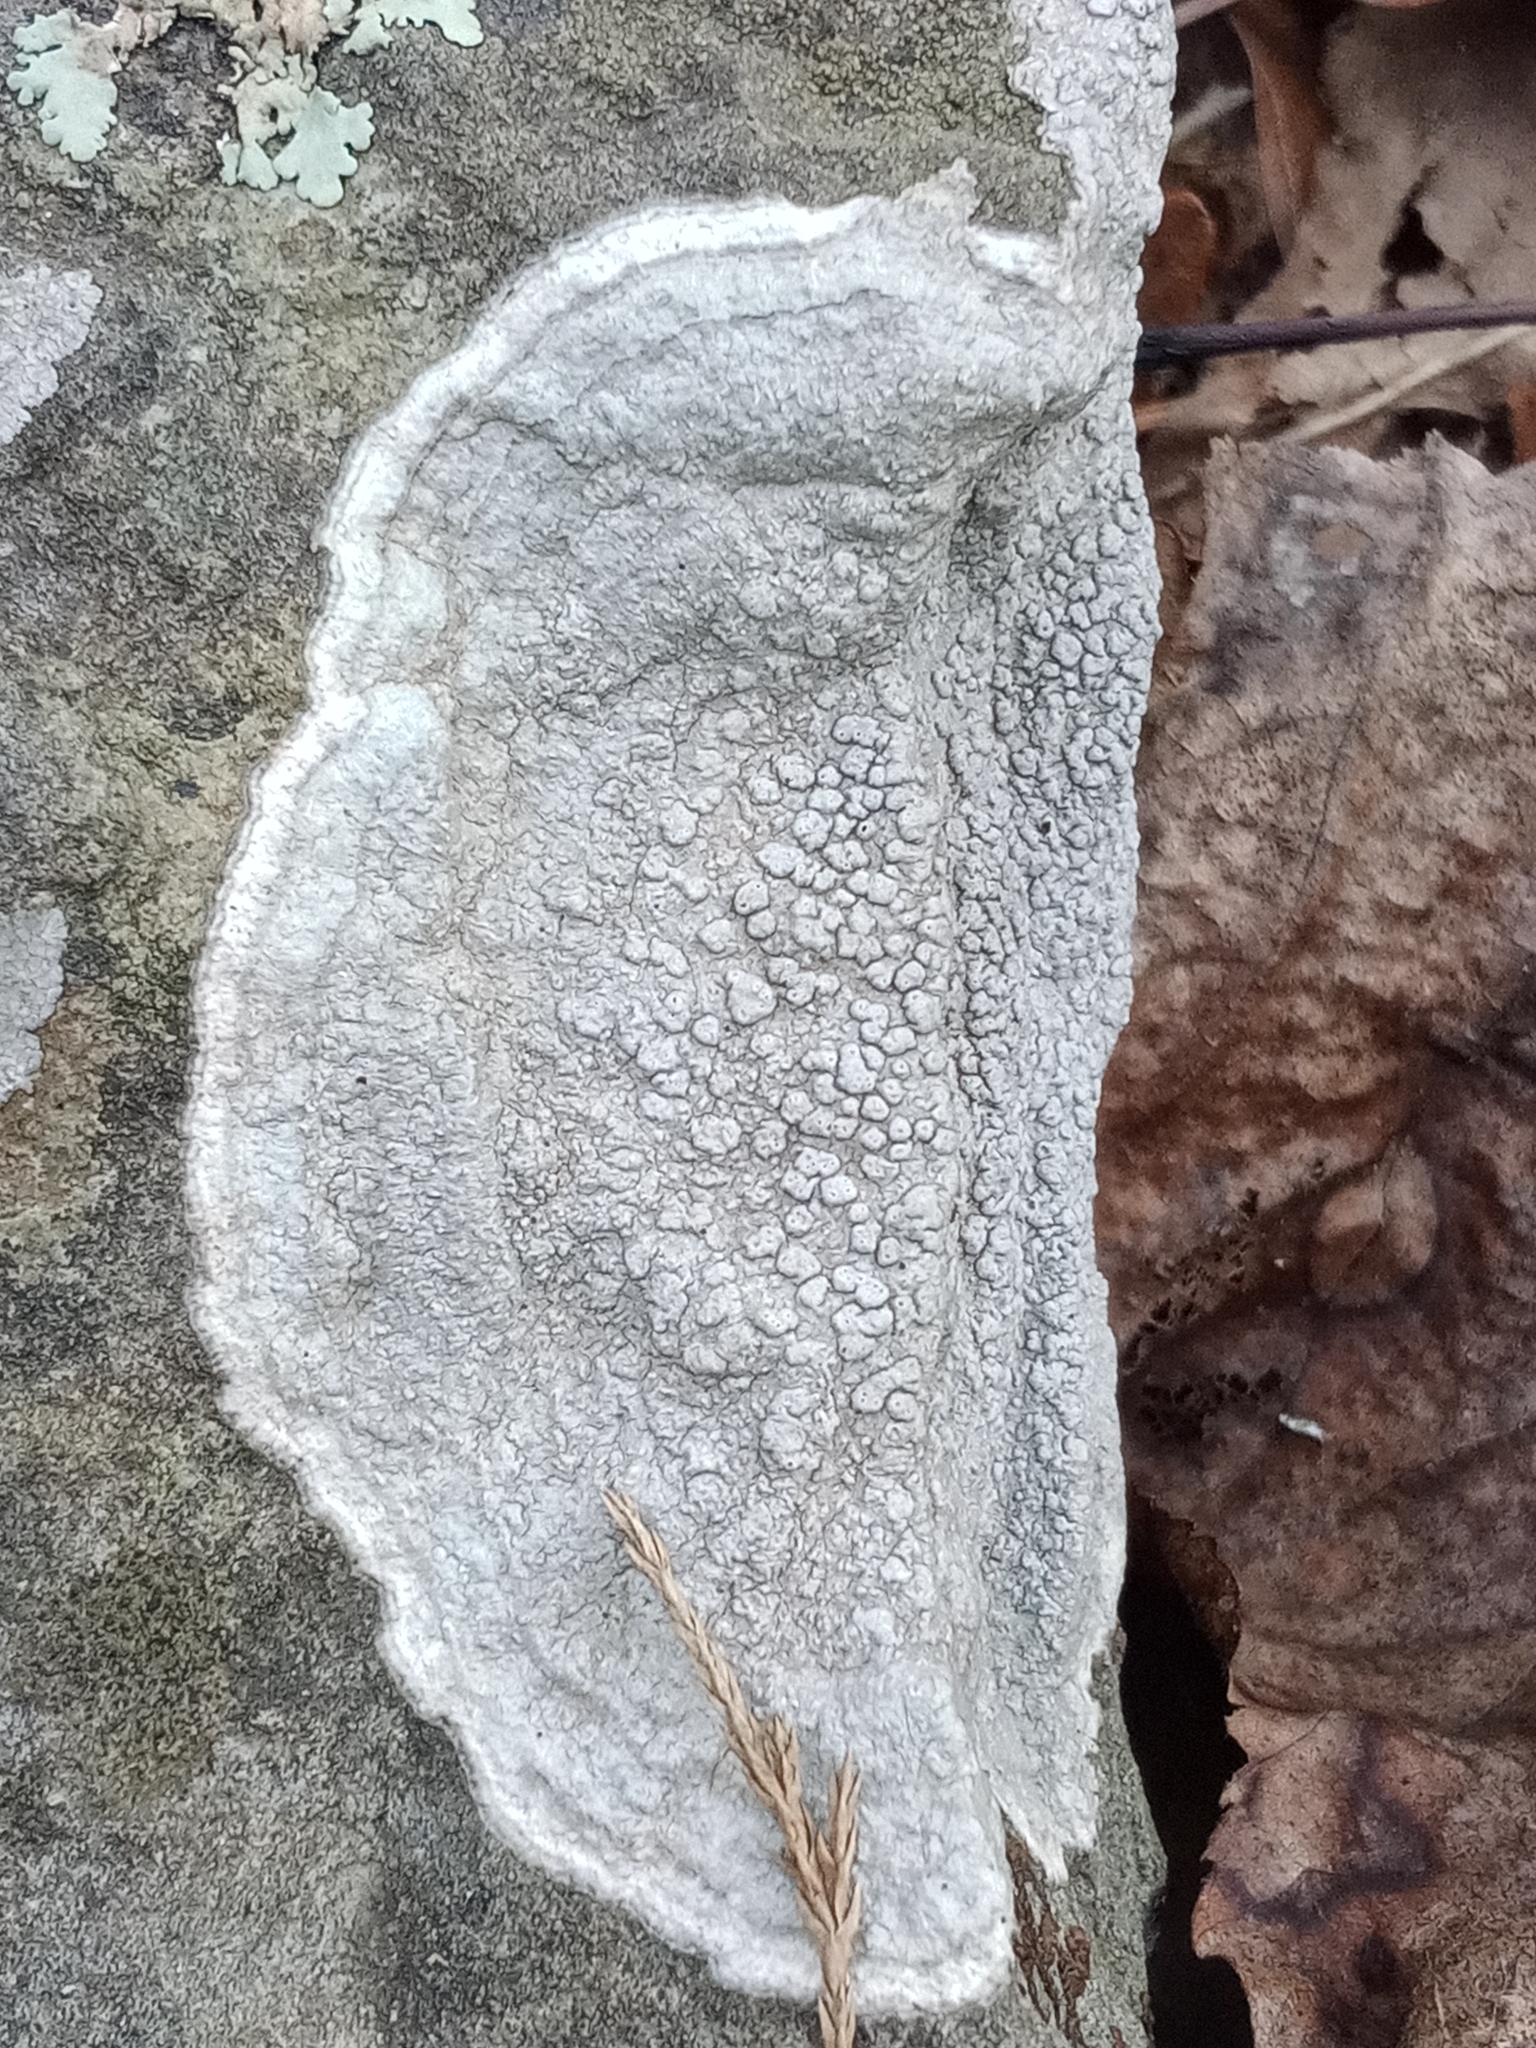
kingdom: Fungi
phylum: Ascomycota
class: Lecanoromycetes
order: Pertusariales
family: Pertusariaceae
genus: Pertusaria
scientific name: Pertusaria plittiana
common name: Rock wart lichen
